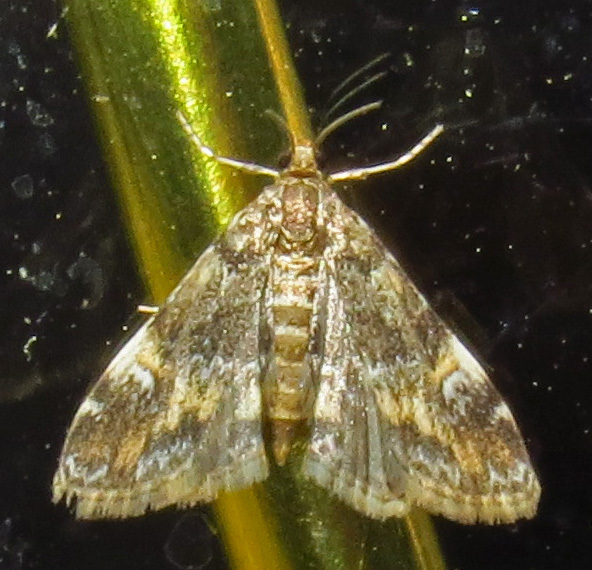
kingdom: Animalia
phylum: Arthropoda
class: Insecta
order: Lepidoptera
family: Crambidae
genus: Elophila
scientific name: Elophila obliteralis
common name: Waterlily leafcutter moth
